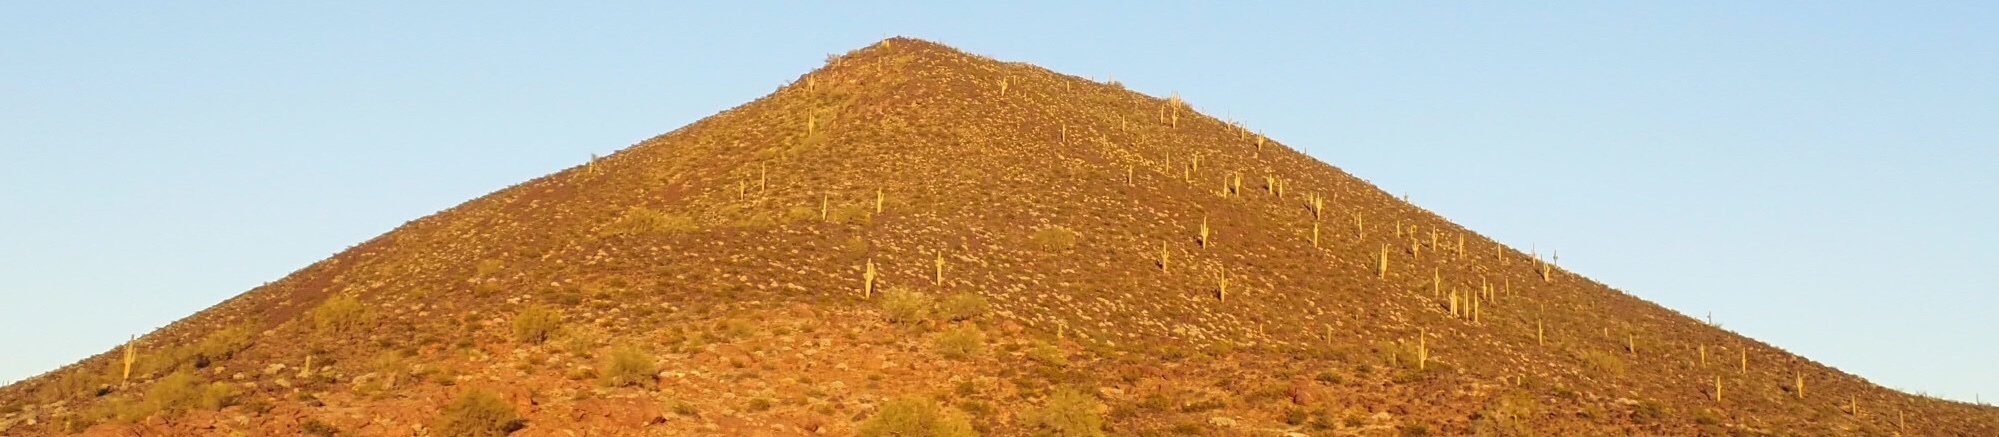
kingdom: Plantae
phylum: Tracheophyta
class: Magnoliopsida
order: Caryophyllales
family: Cactaceae
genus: Carnegiea
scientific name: Carnegiea gigantea
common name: Saguaro
